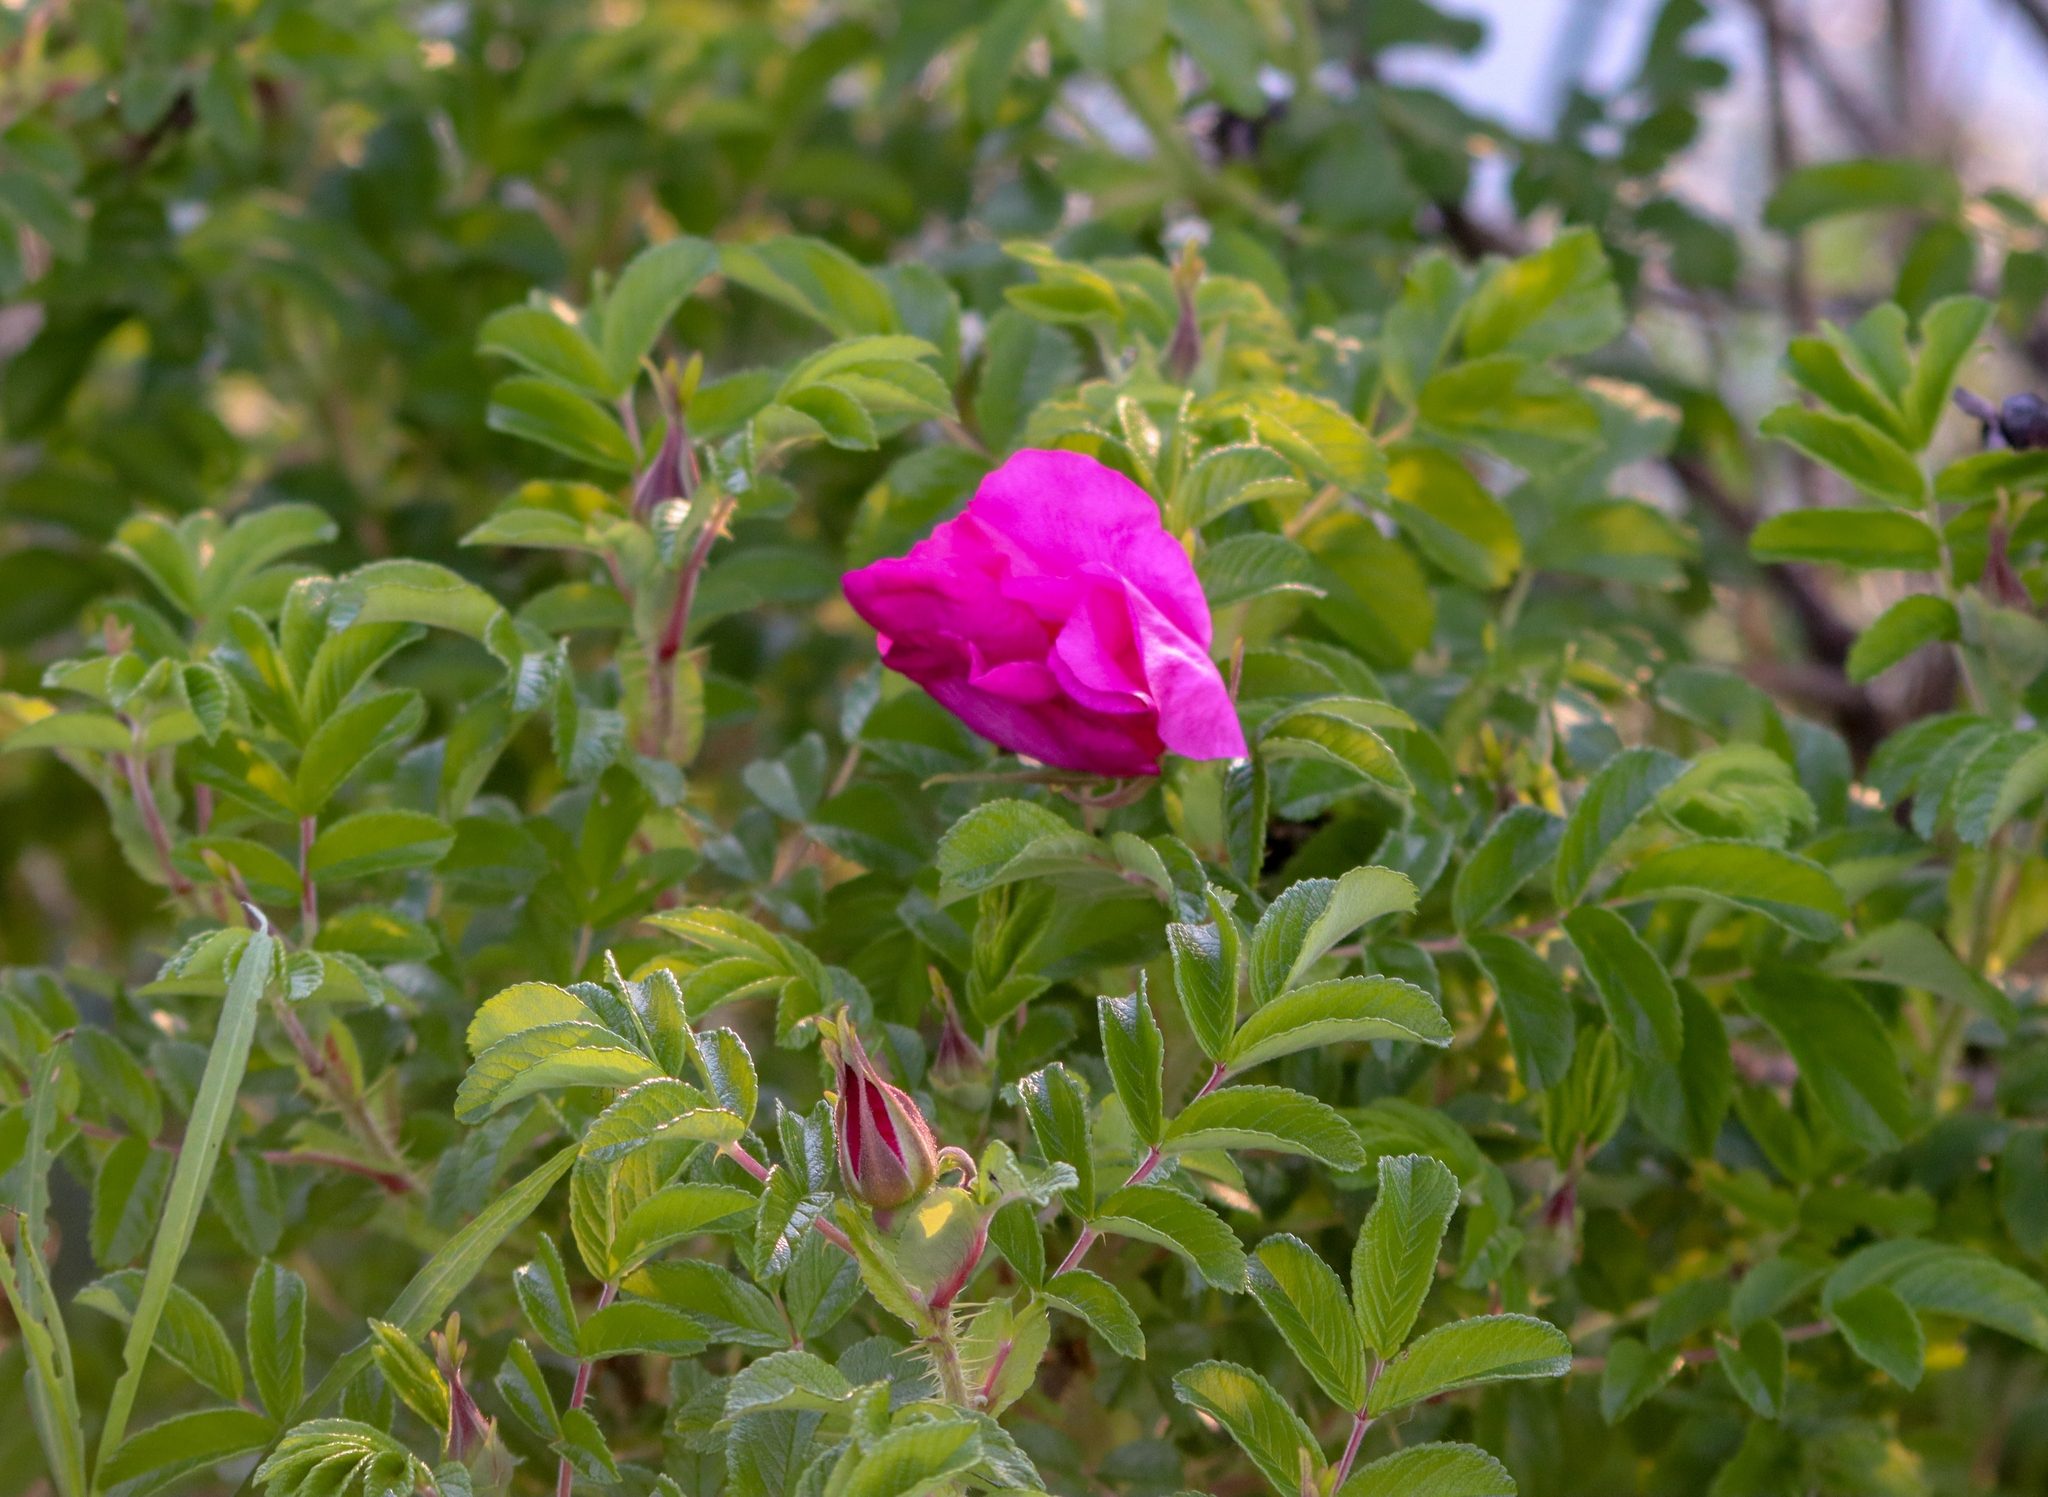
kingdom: Plantae
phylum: Tracheophyta
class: Magnoliopsida
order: Rosales
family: Rosaceae
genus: Rosa
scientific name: Rosa rugosa
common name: Japanese rose
